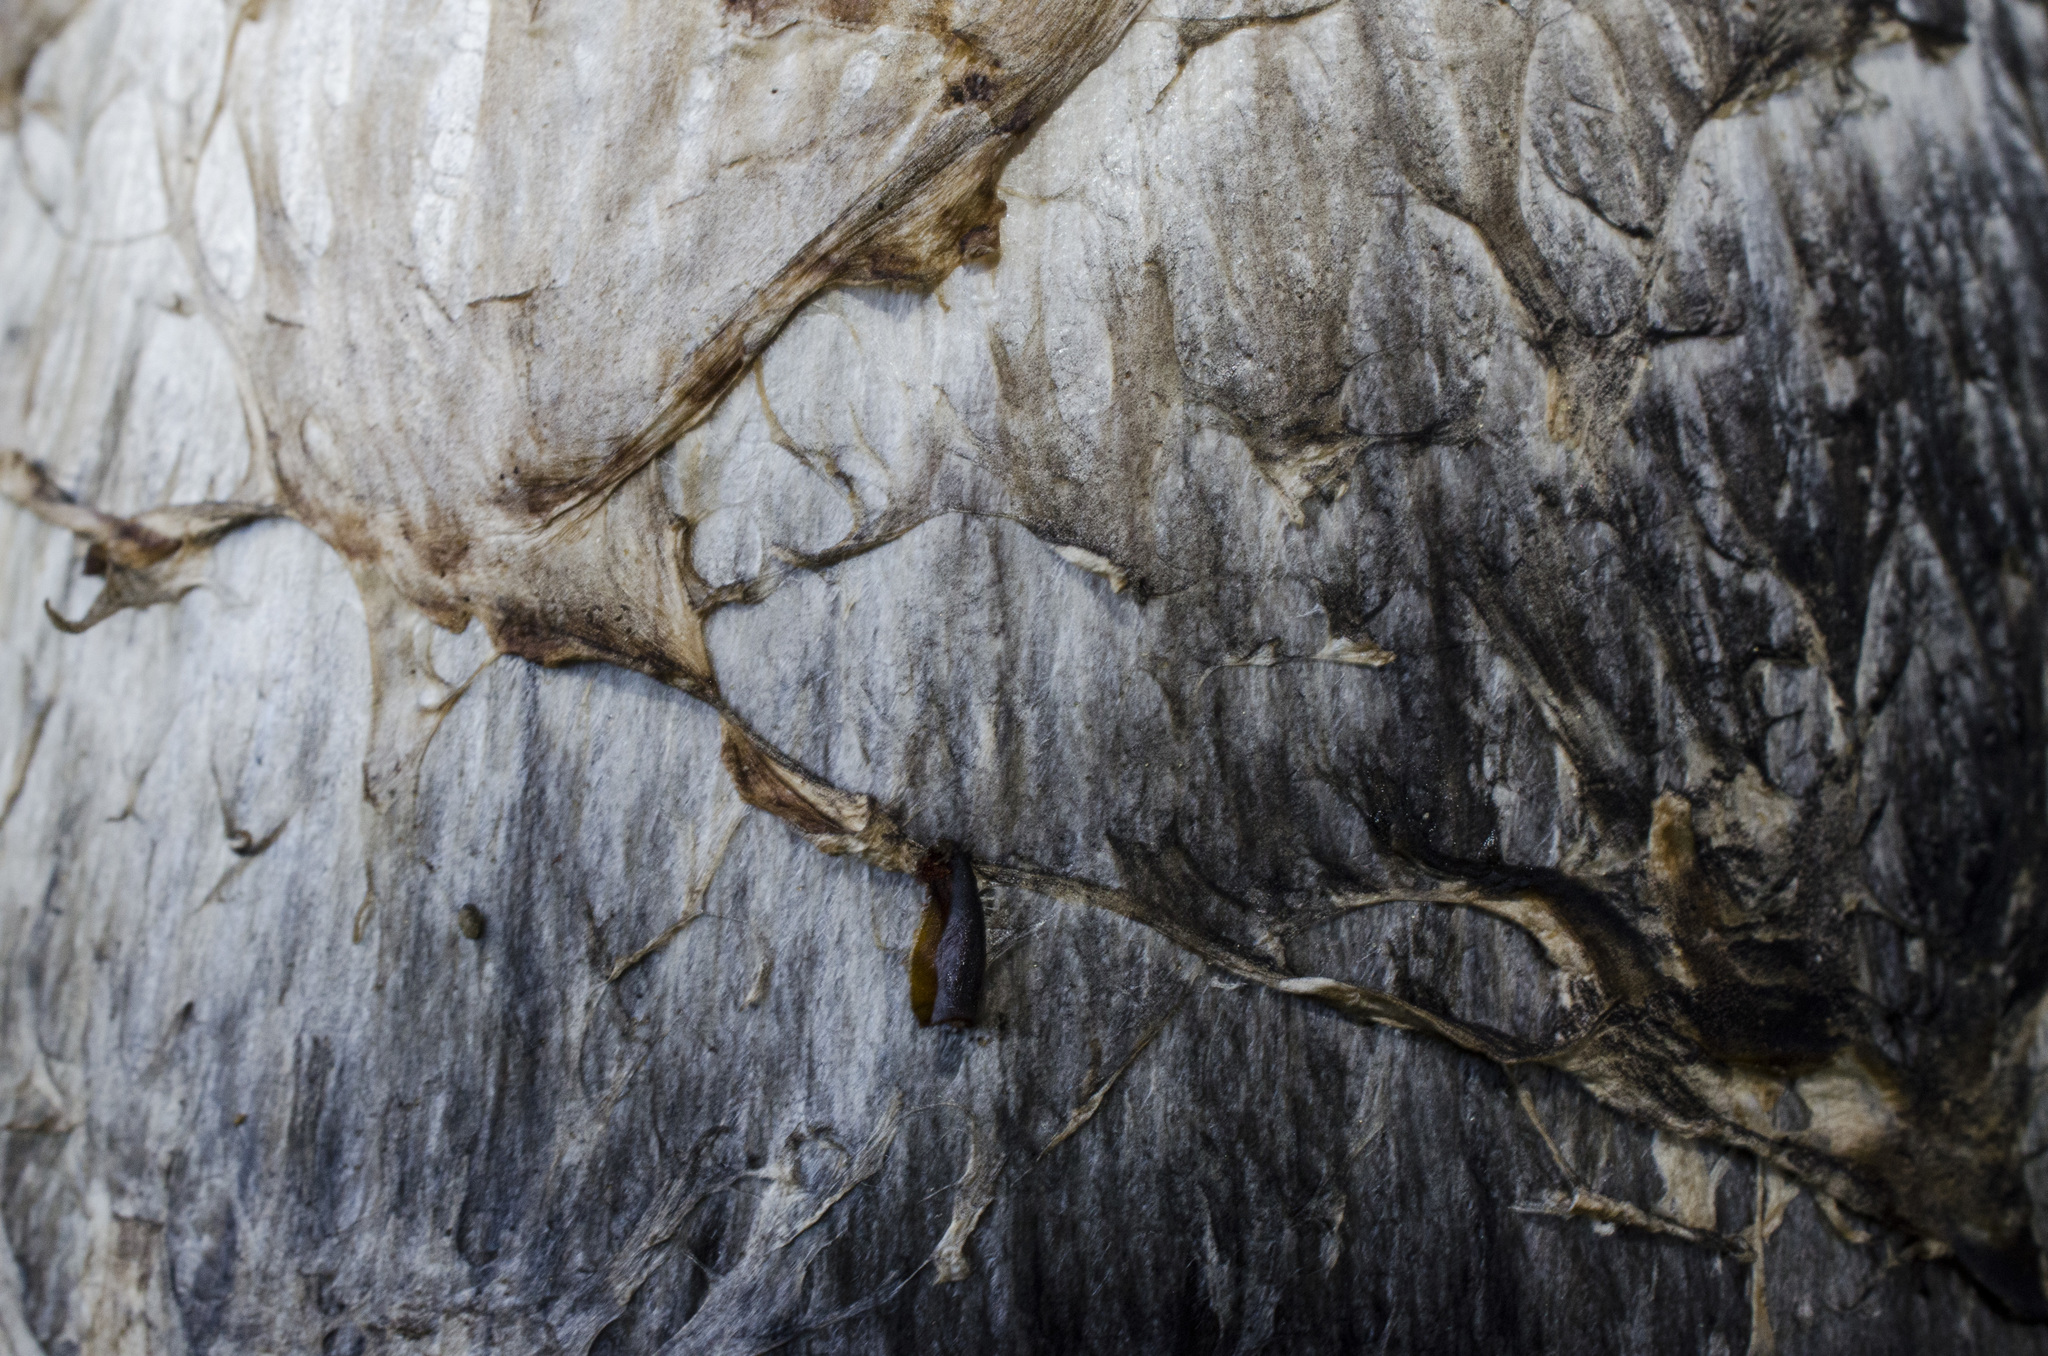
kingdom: Fungi
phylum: Basidiomycota
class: Agaricomycetes
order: Agaricales
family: Agaricaceae
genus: Coprinus
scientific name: Coprinus comatus
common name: Lawyer's wig
